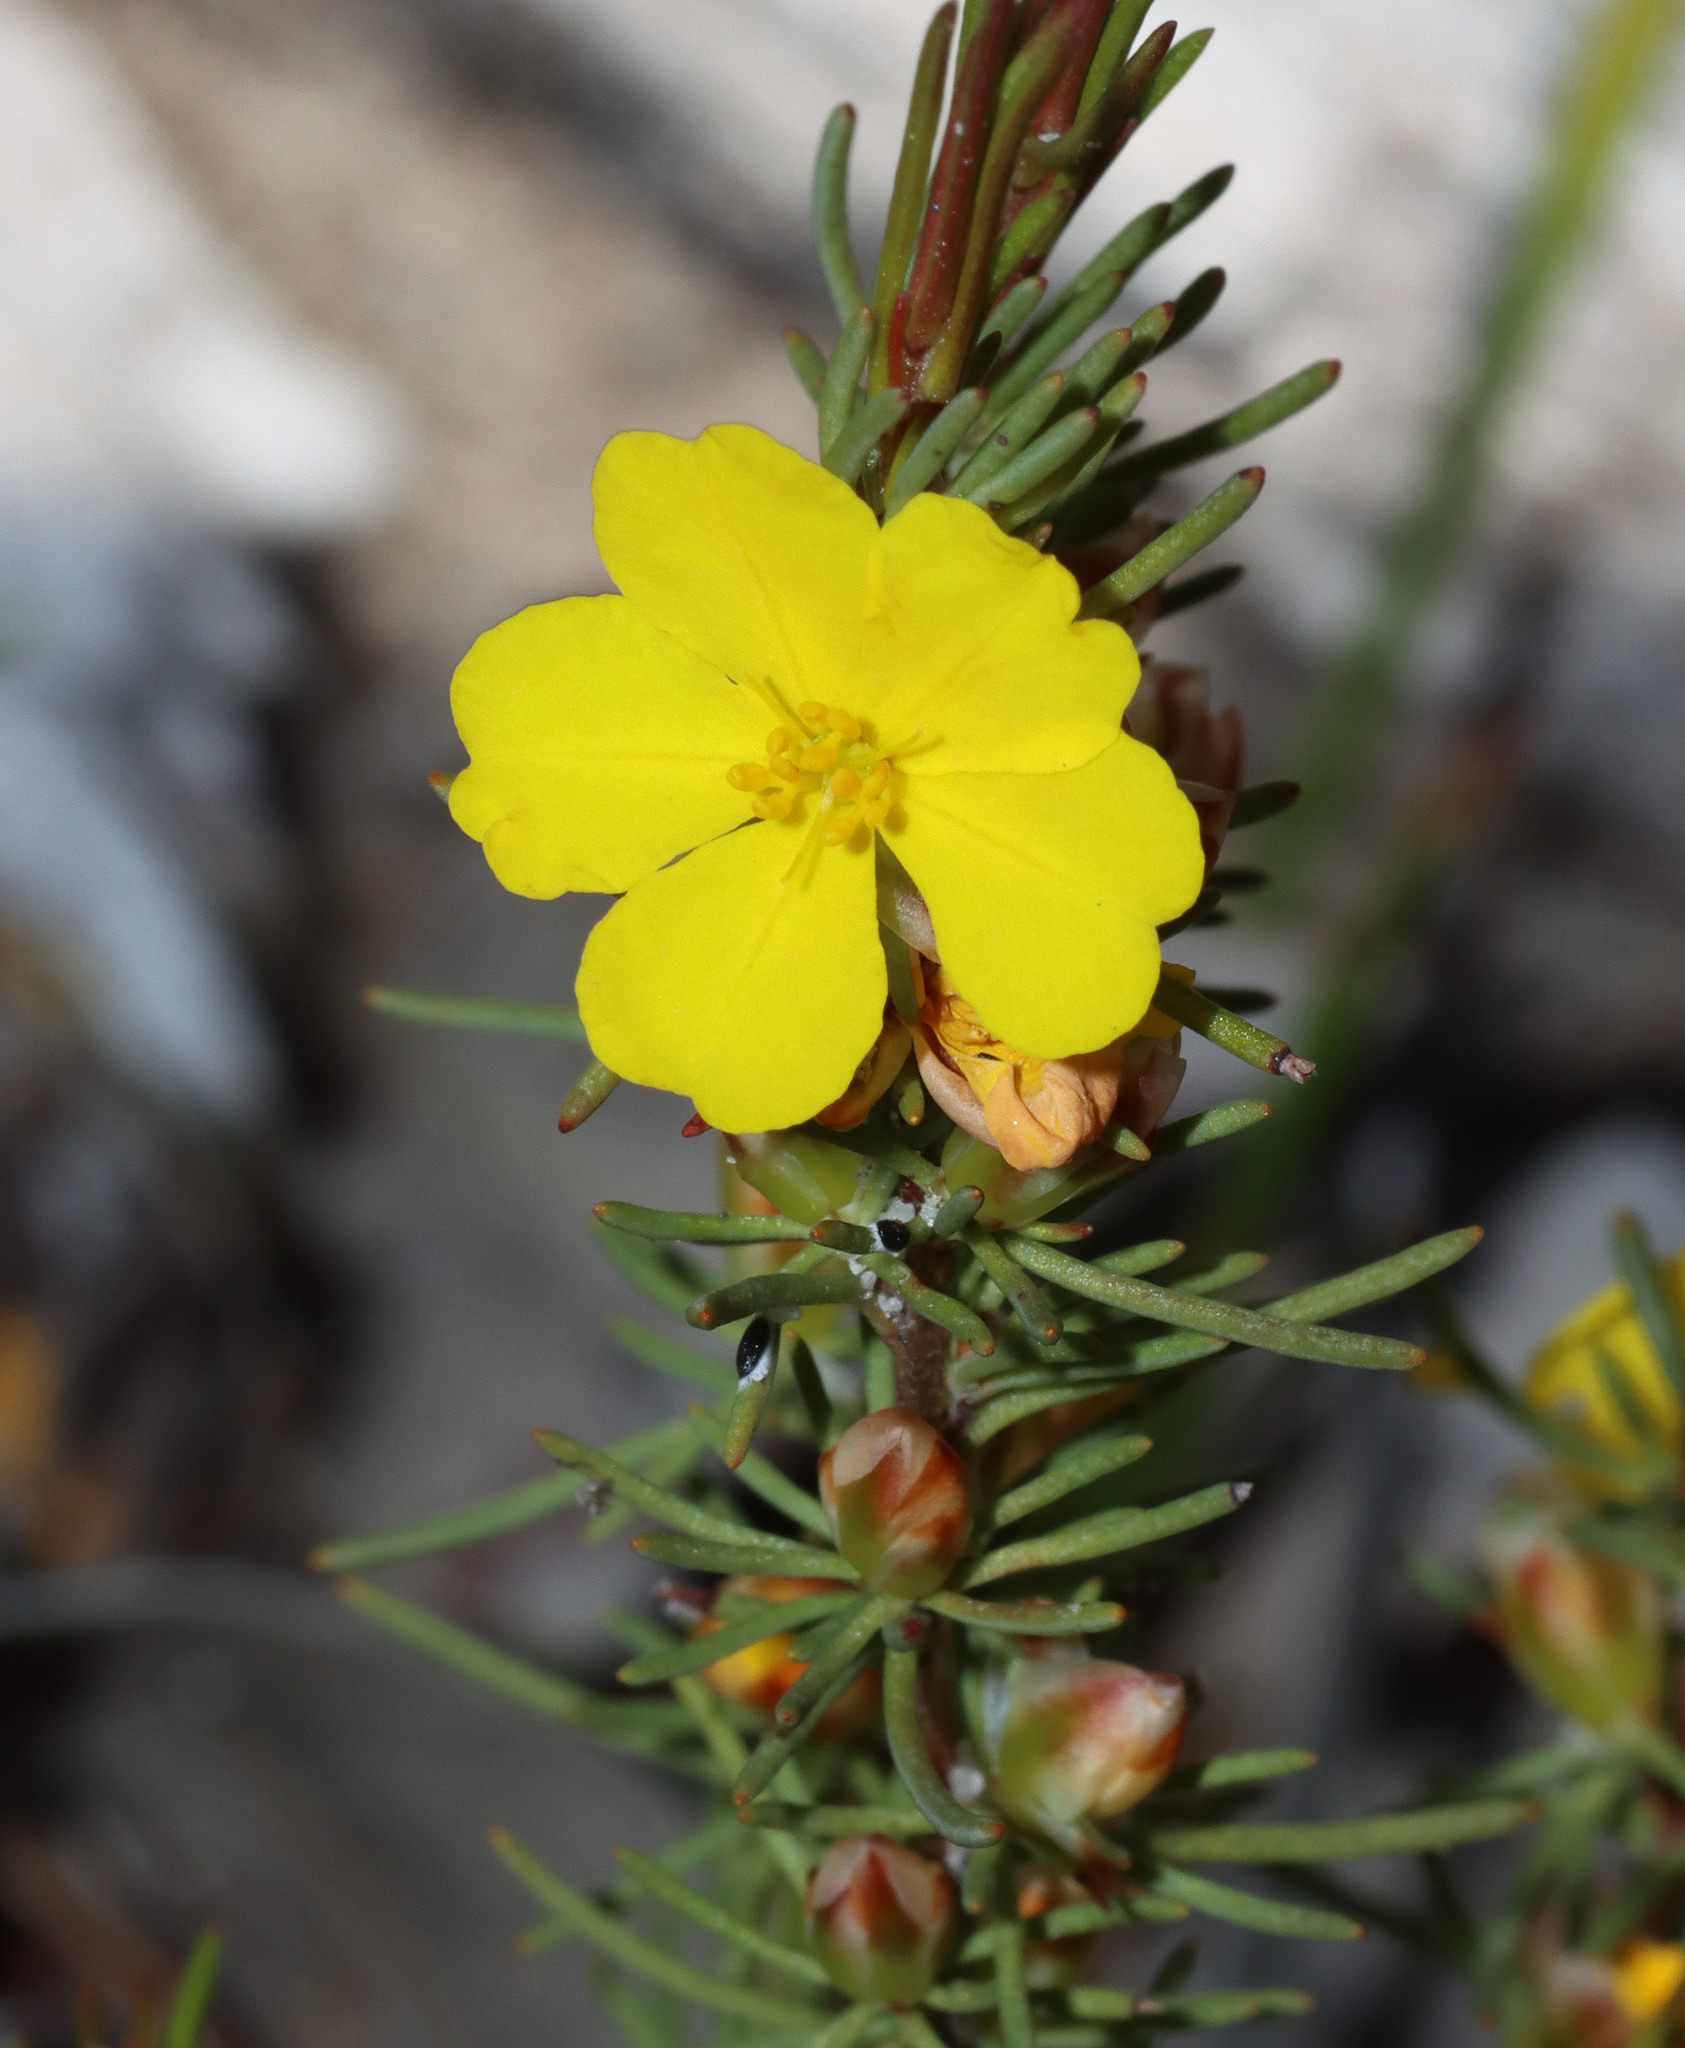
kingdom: Plantae
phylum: Tracheophyta
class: Magnoliopsida
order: Dilleniales
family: Dilleniaceae
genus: Hibbertia
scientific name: Hibbertia hemignosta
